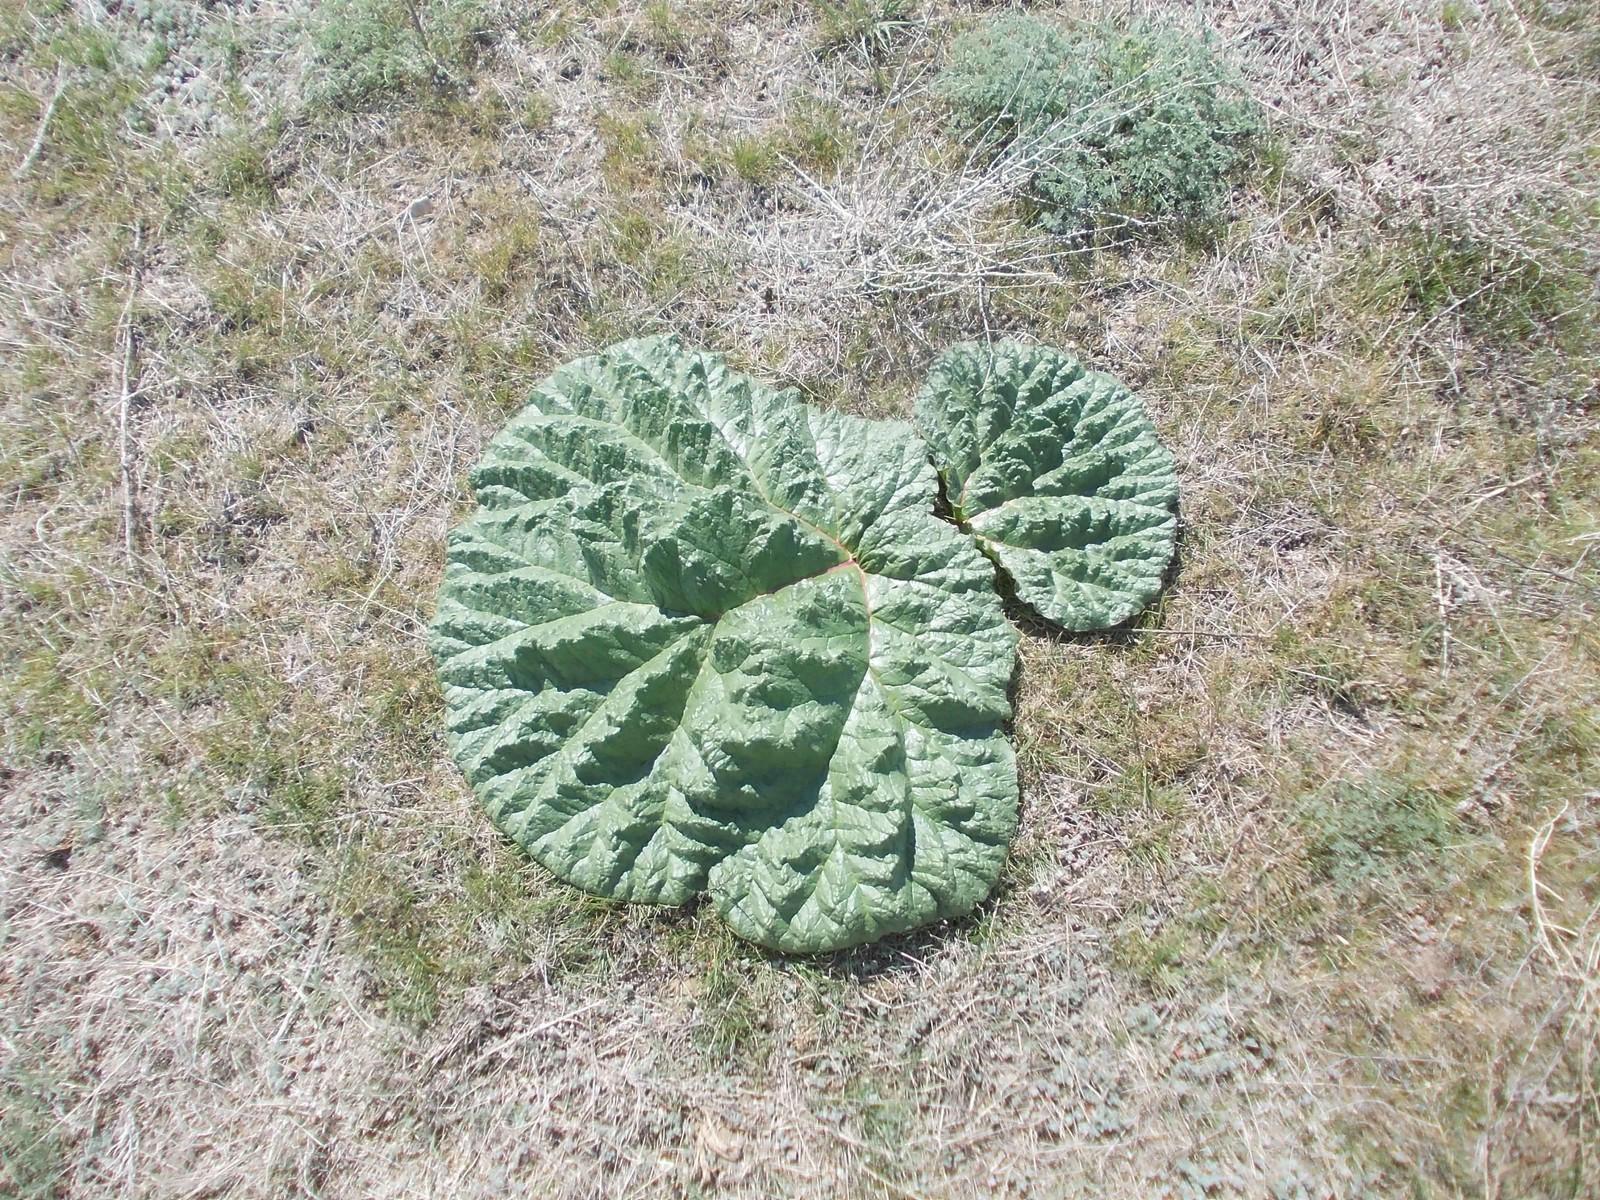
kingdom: Plantae
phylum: Tracheophyta
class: Magnoliopsida
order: Caryophyllales
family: Polygonaceae
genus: Rheum
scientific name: Rheum tataricum
